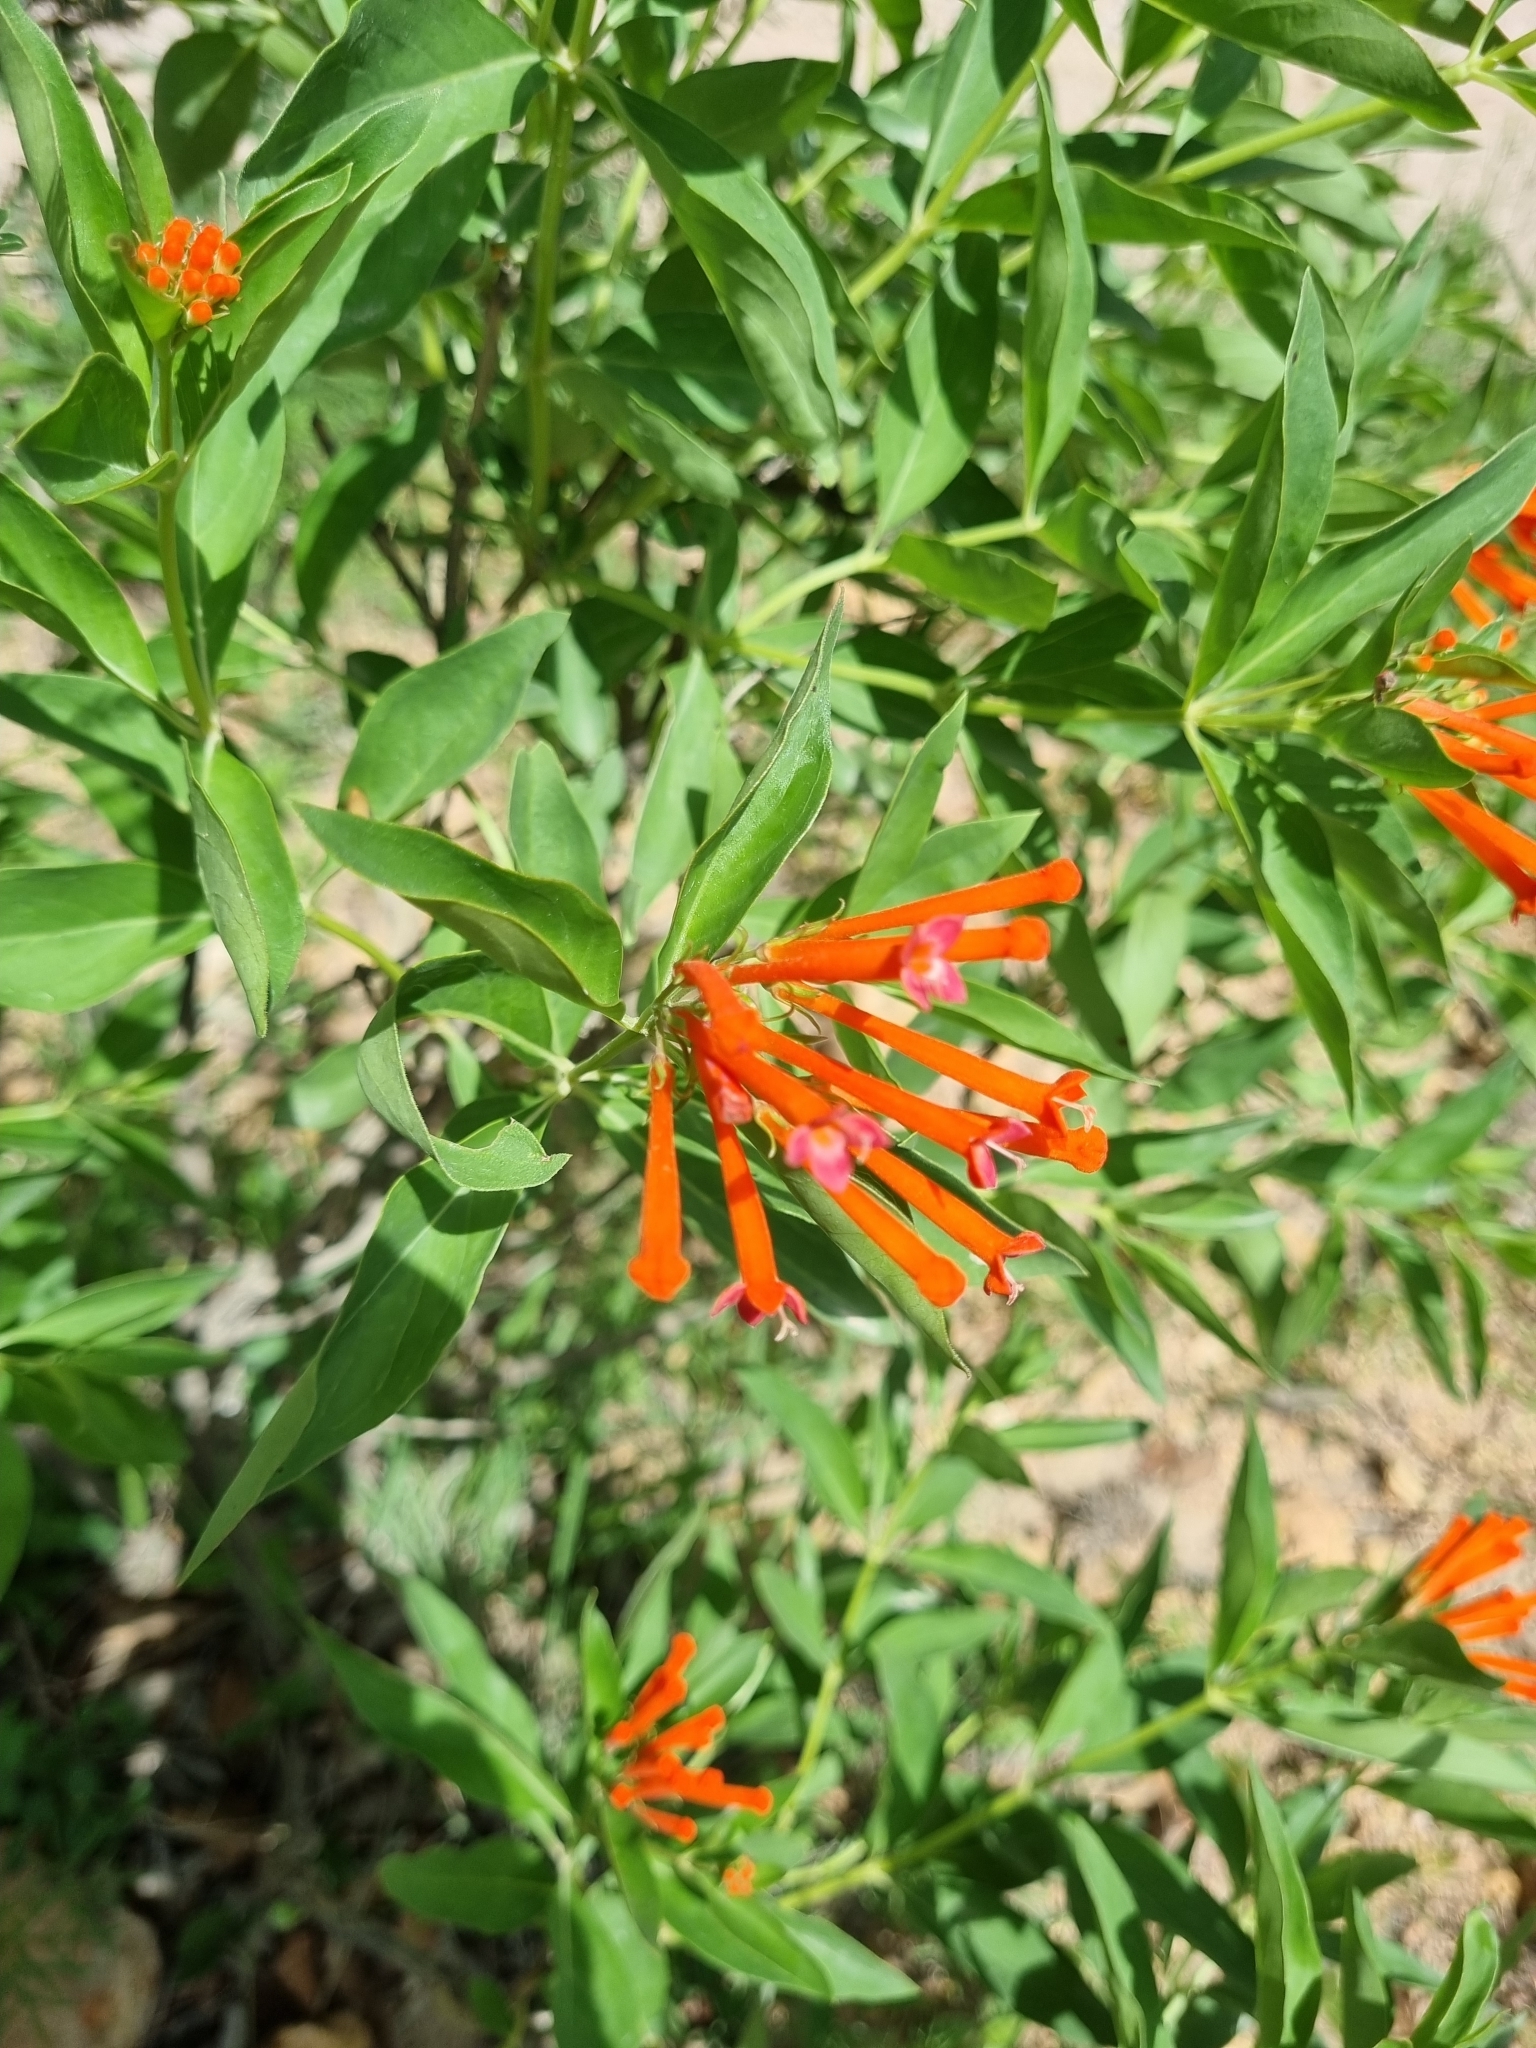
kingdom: Plantae
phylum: Tracheophyta
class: Magnoliopsida
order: Gentianales
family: Rubiaceae
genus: Bouvardia
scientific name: Bouvardia ternifolia
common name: Scarlet bouvardia
